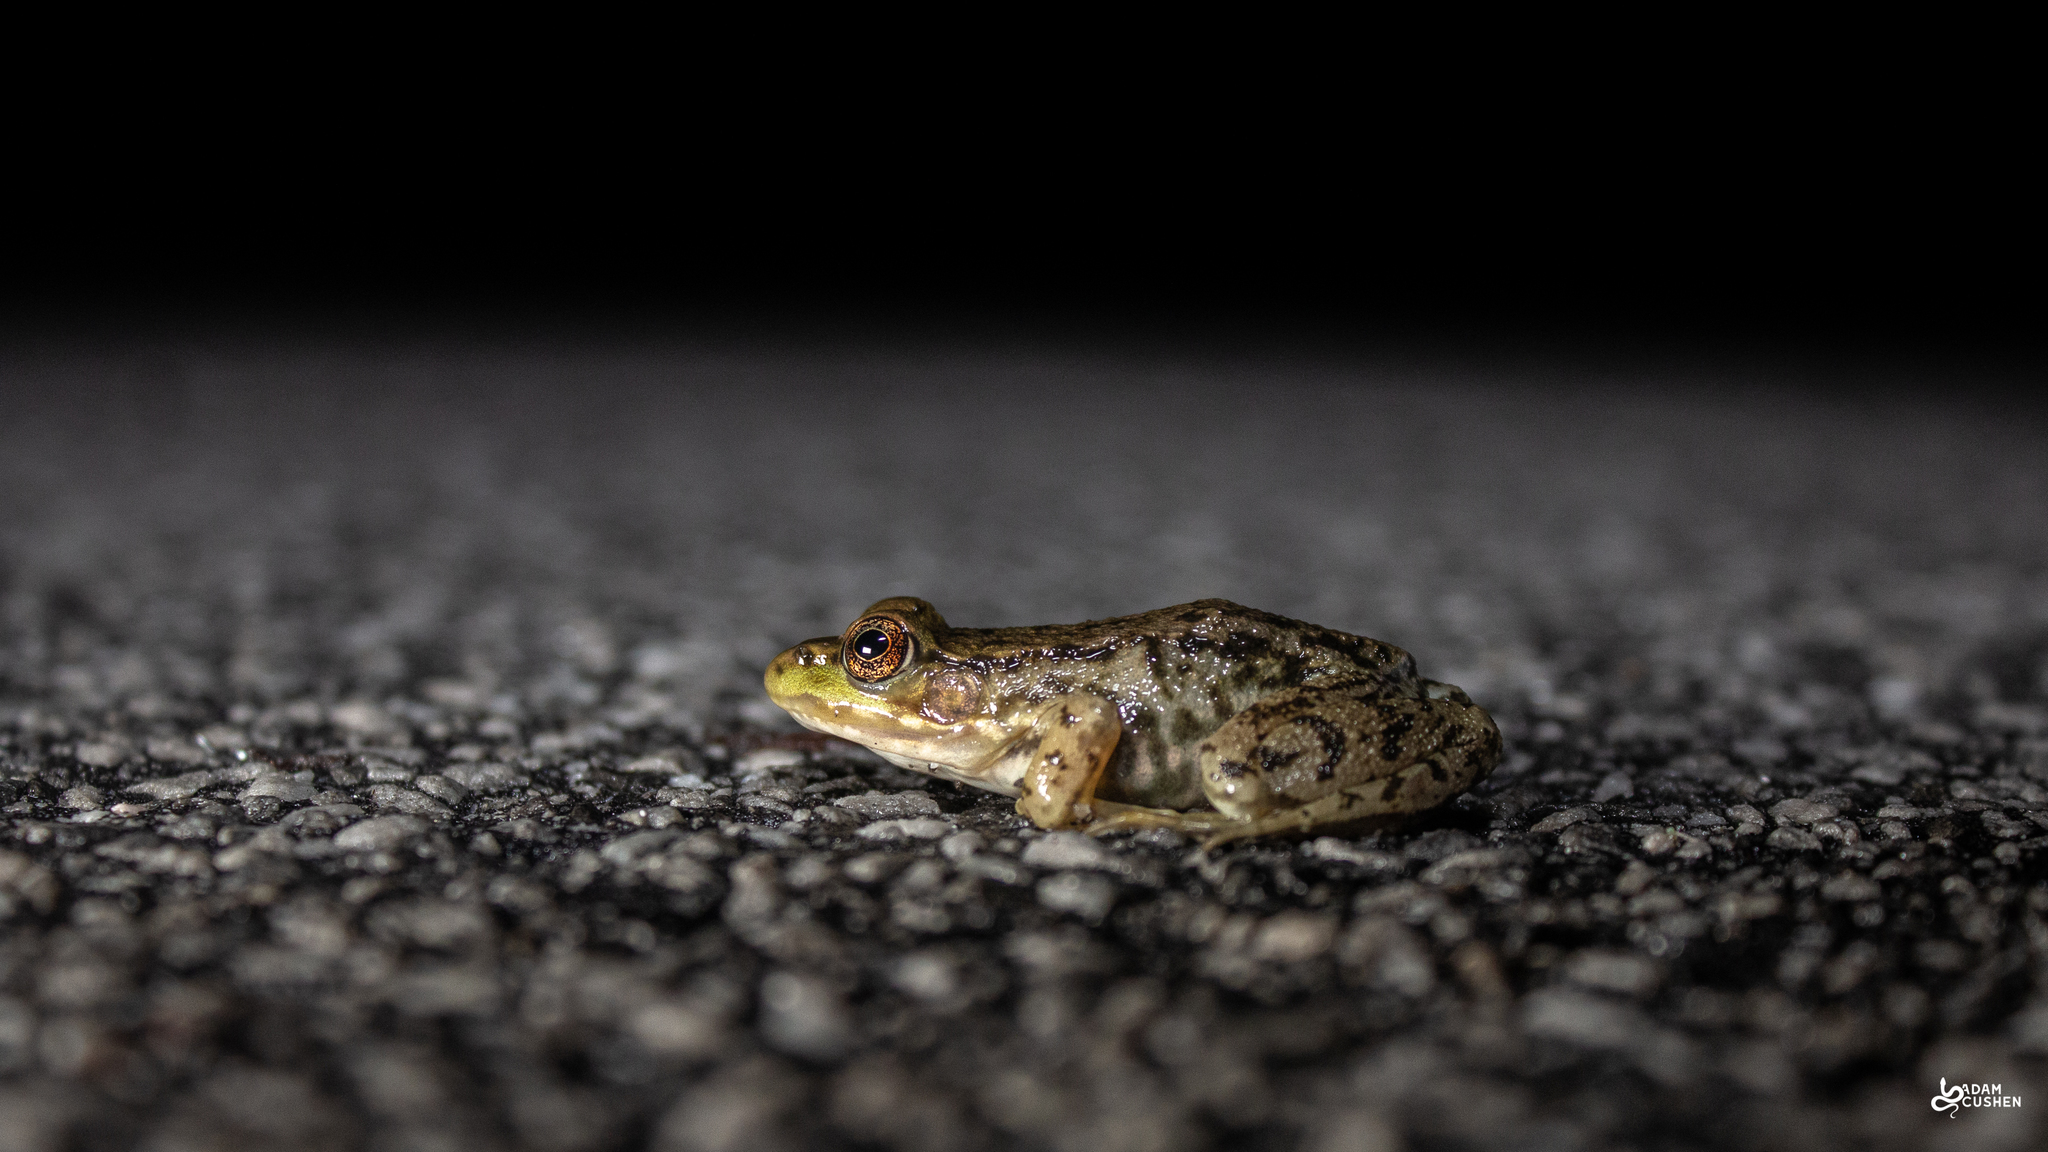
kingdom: Animalia
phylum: Chordata
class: Amphibia
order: Anura
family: Ranidae
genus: Lithobates
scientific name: Lithobates clamitans
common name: Green frog
